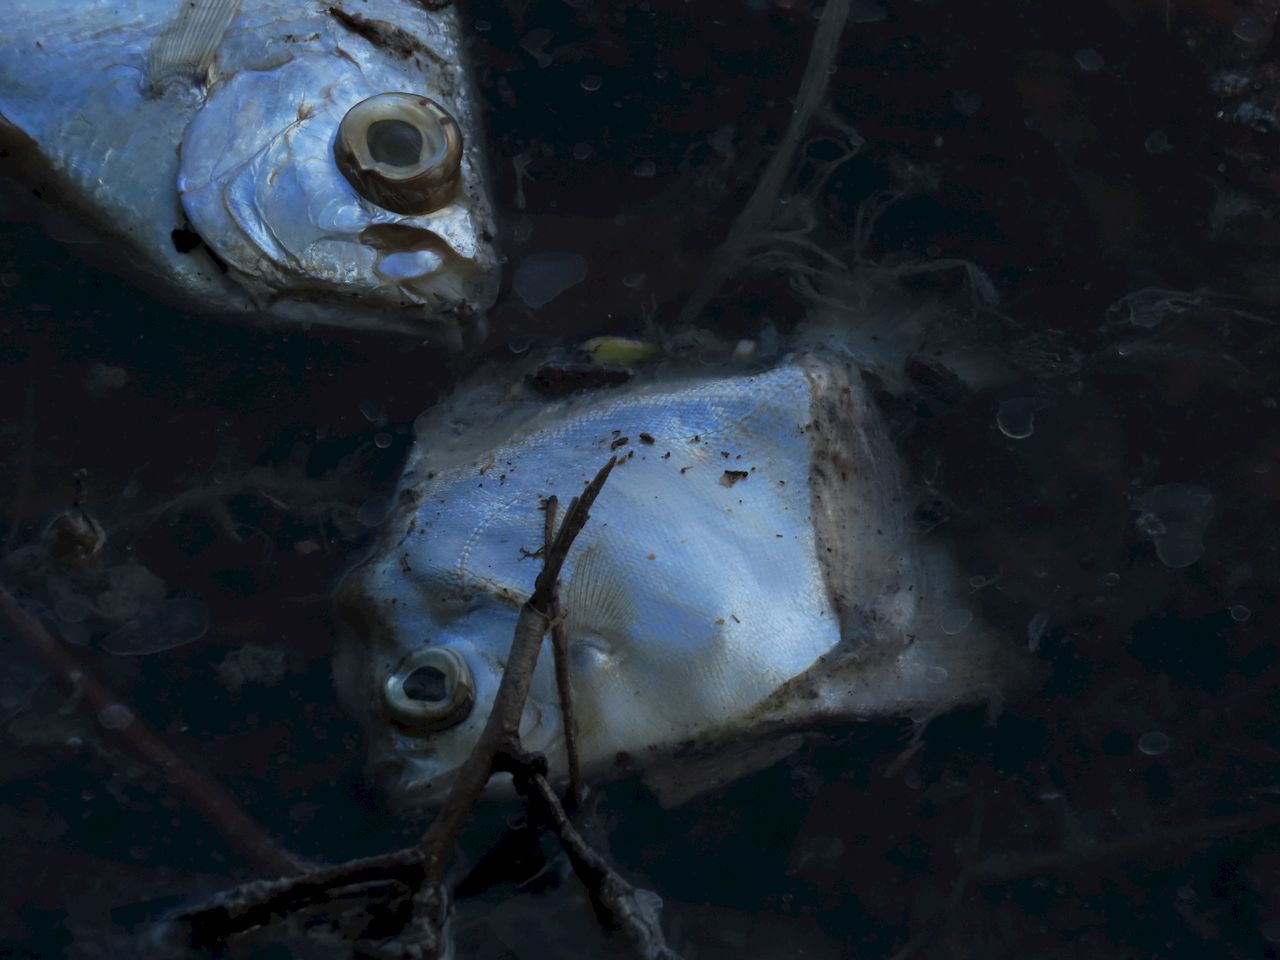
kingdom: Animalia
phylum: Chordata
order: Perciformes
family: Monodactylidae
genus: Monodactylus
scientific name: Monodactylus argenteus
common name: Silver moony
